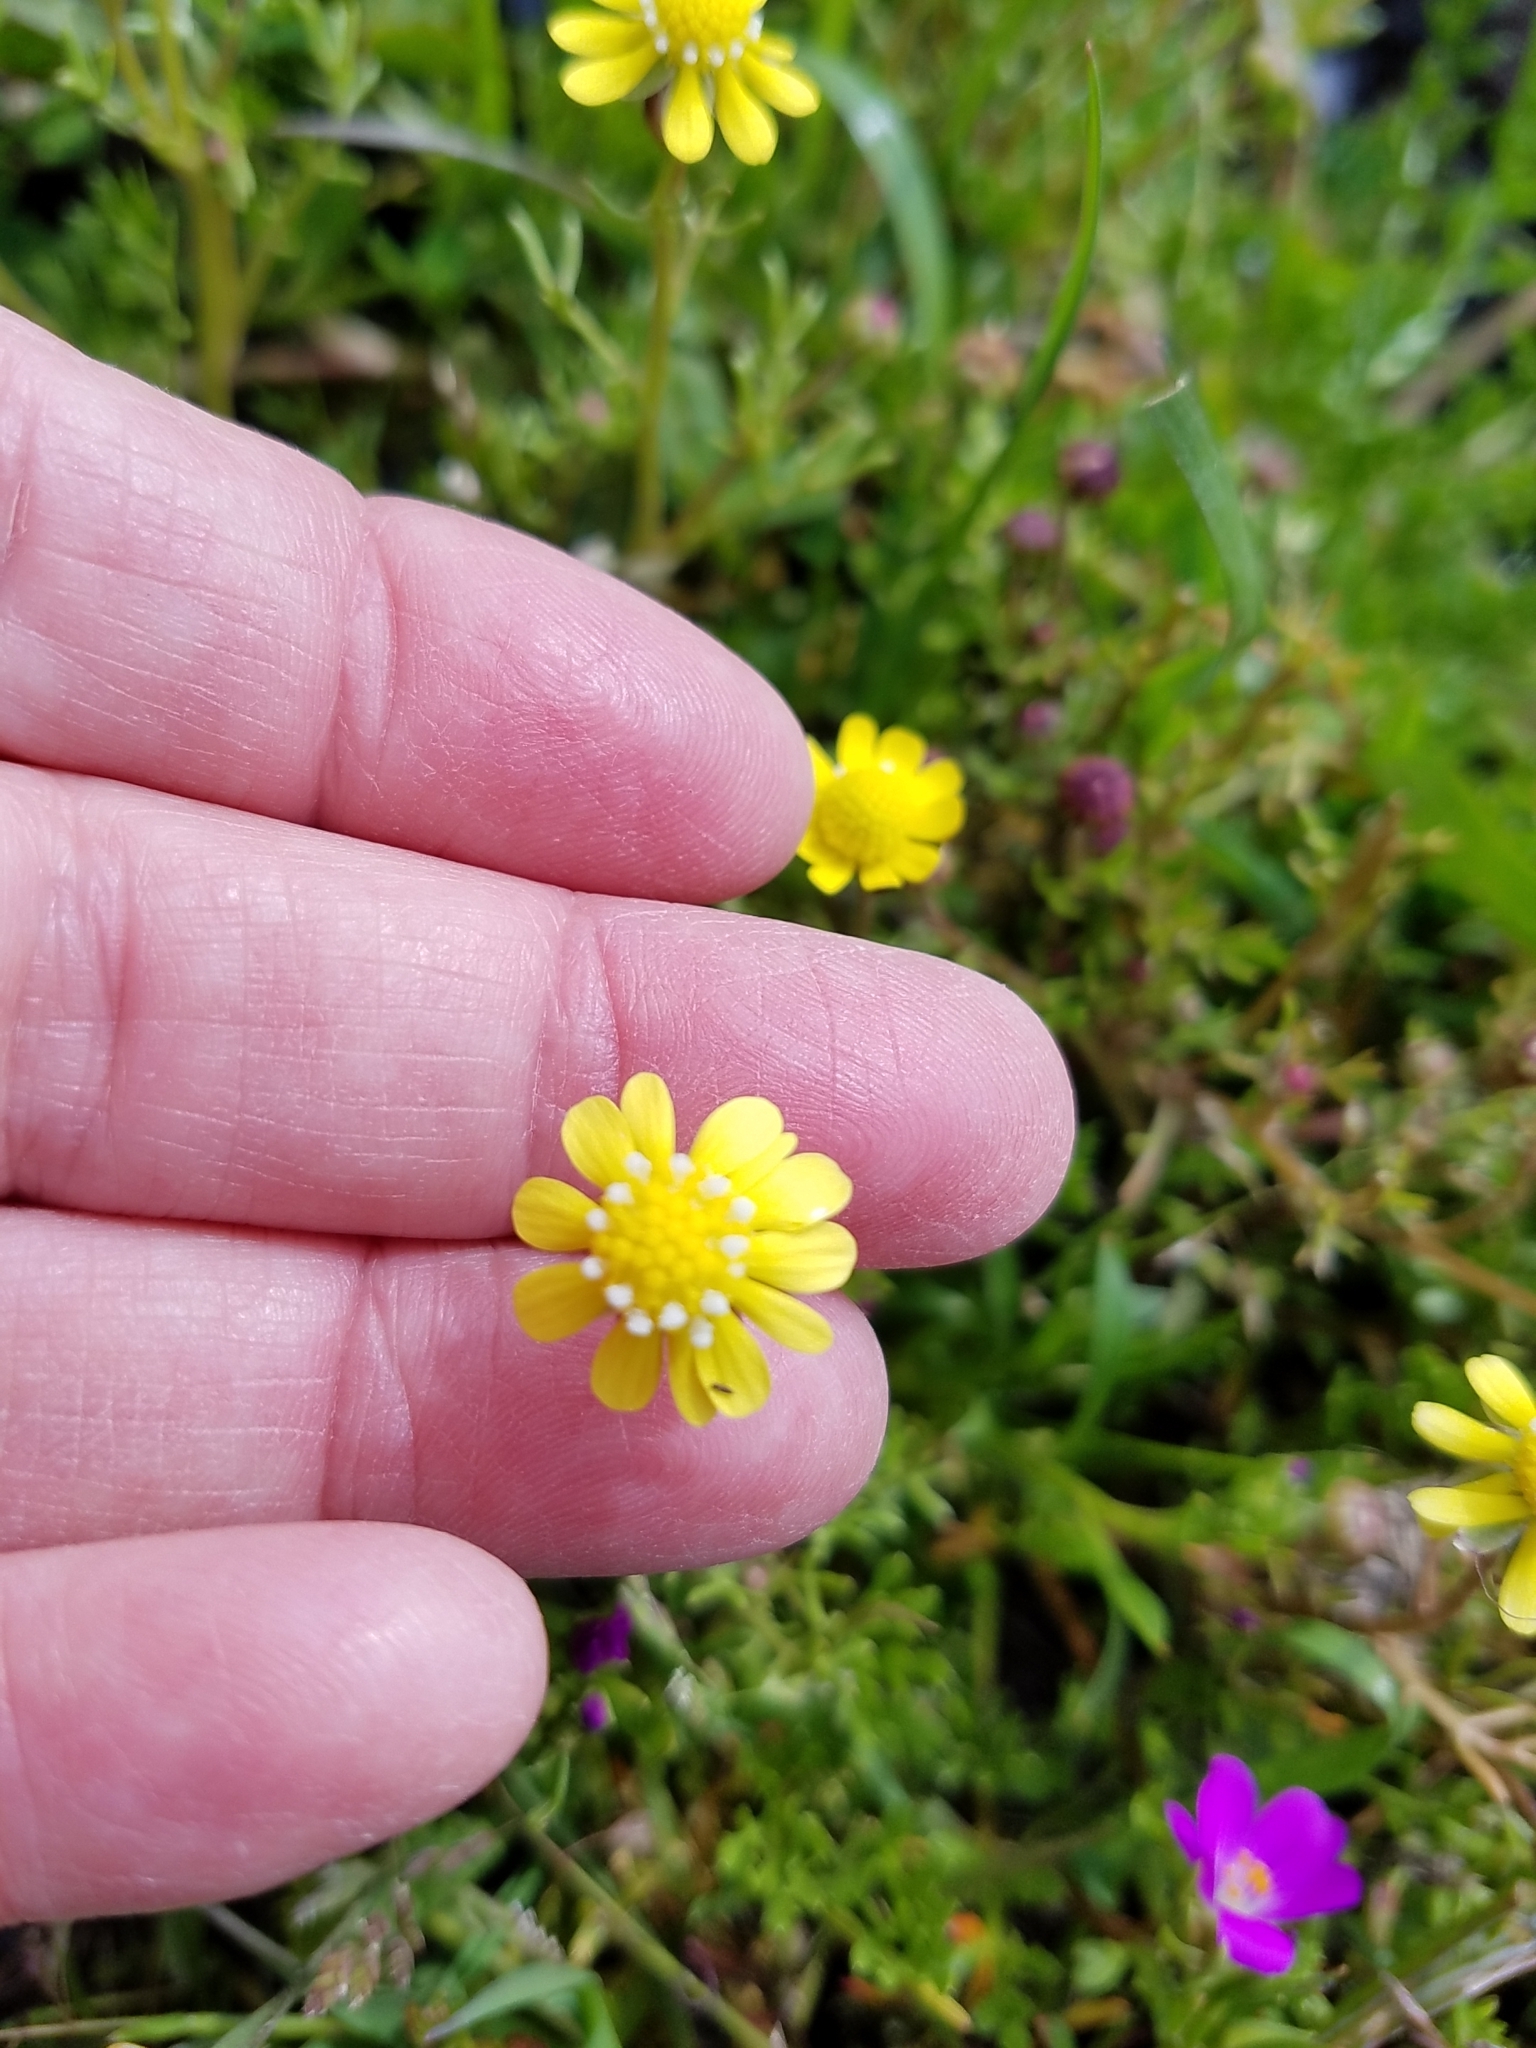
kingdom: Plantae
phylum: Tracheophyta
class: Magnoliopsida
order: Asterales
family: Asteraceae
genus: Blennosperma
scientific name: Blennosperma nanum
